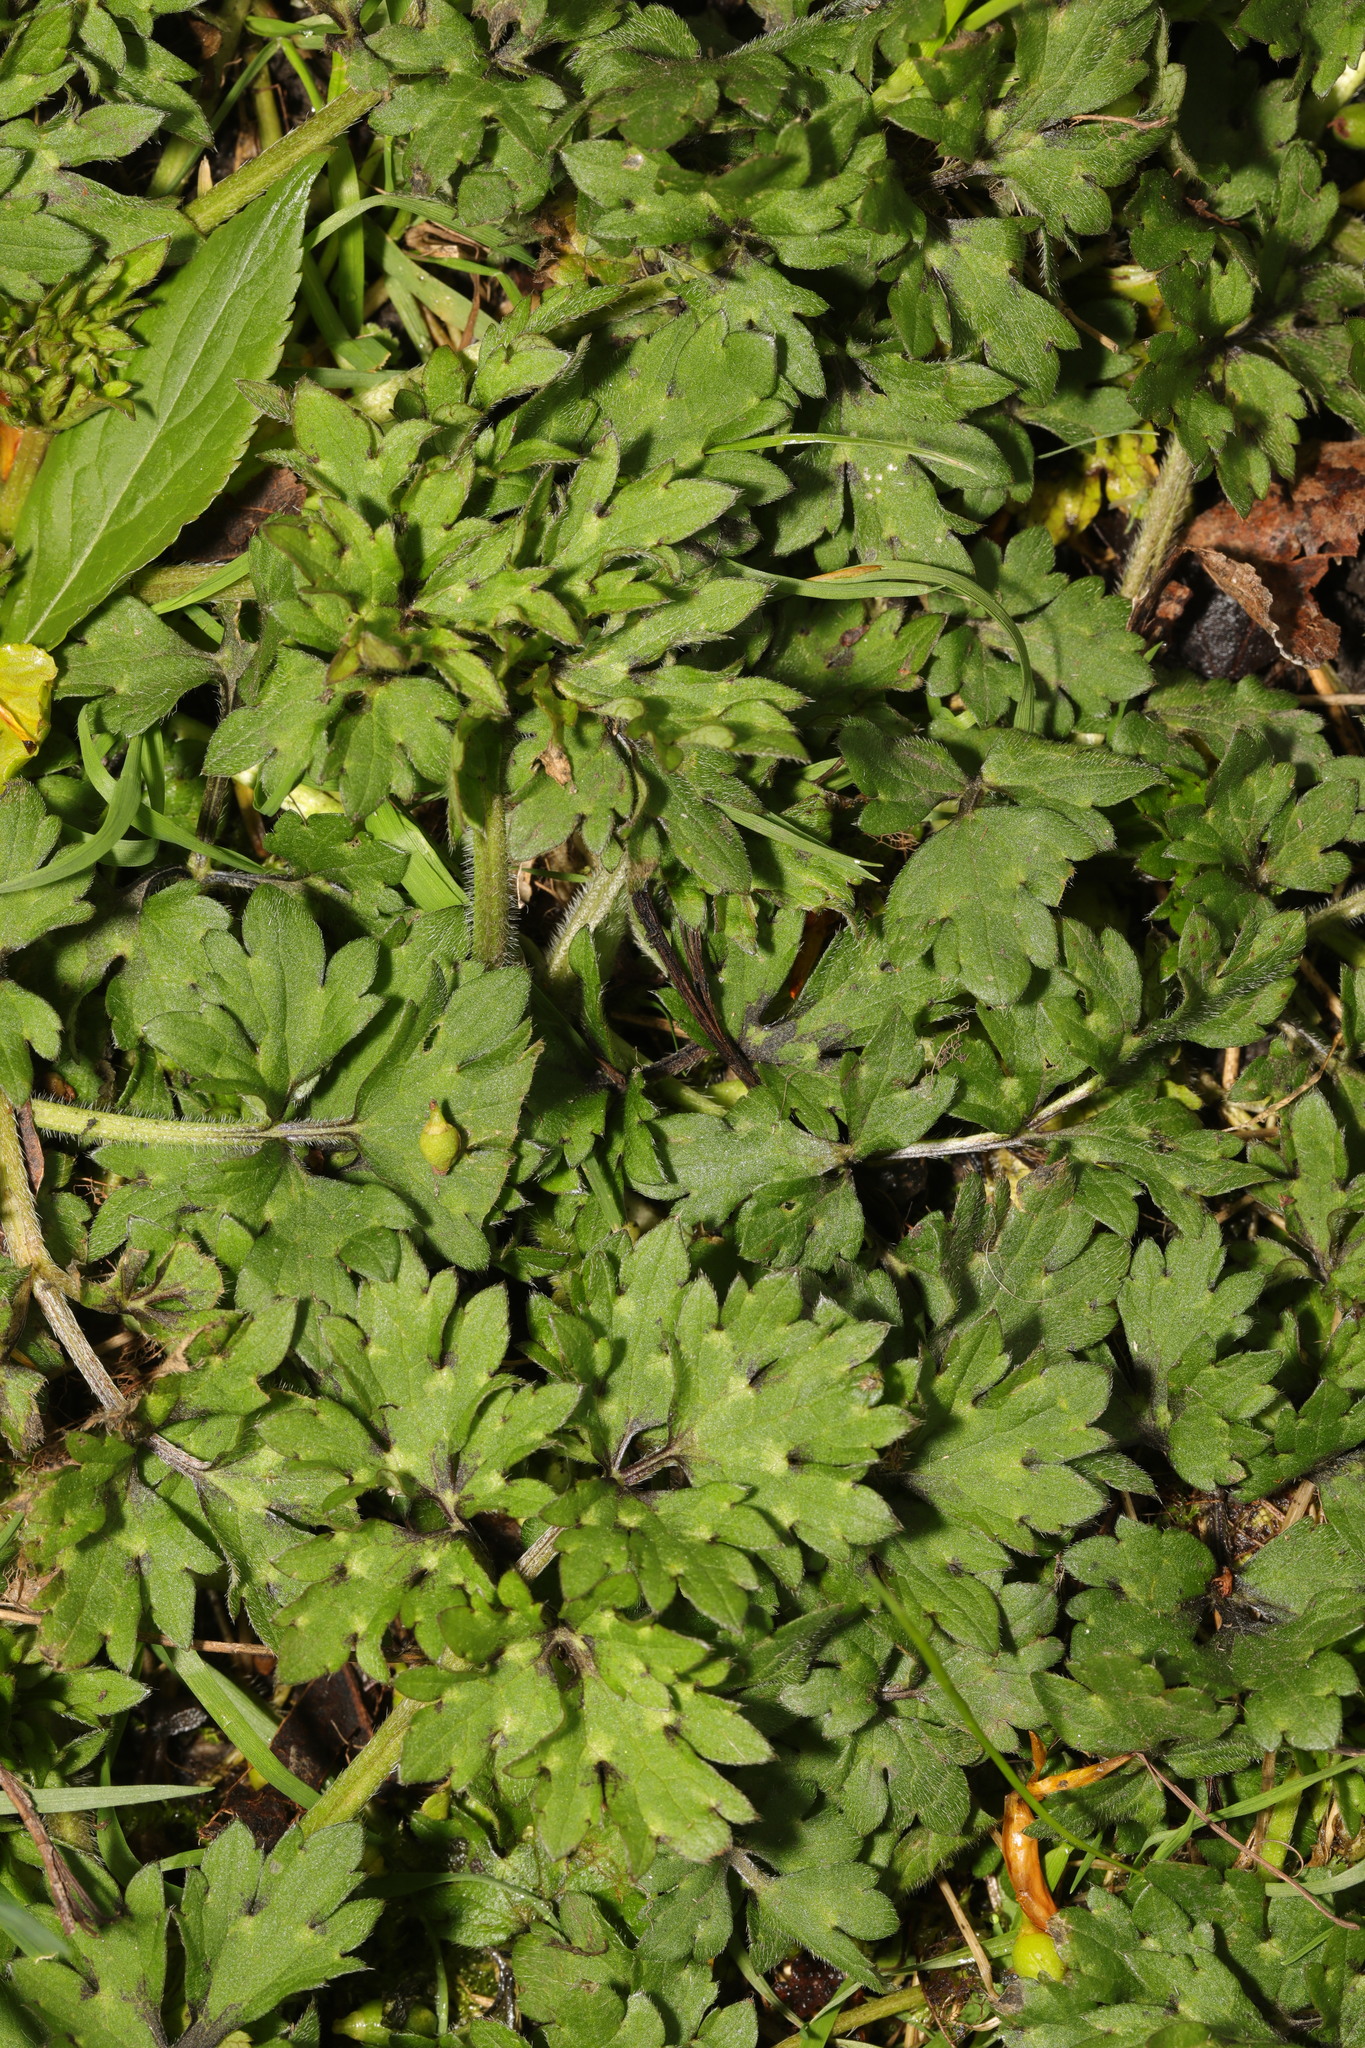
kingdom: Plantae
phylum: Tracheophyta
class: Magnoliopsida
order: Ranunculales
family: Ranunculaceae
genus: Ranunculus
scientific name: Ranunculus repens
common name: Creeping buttercup
